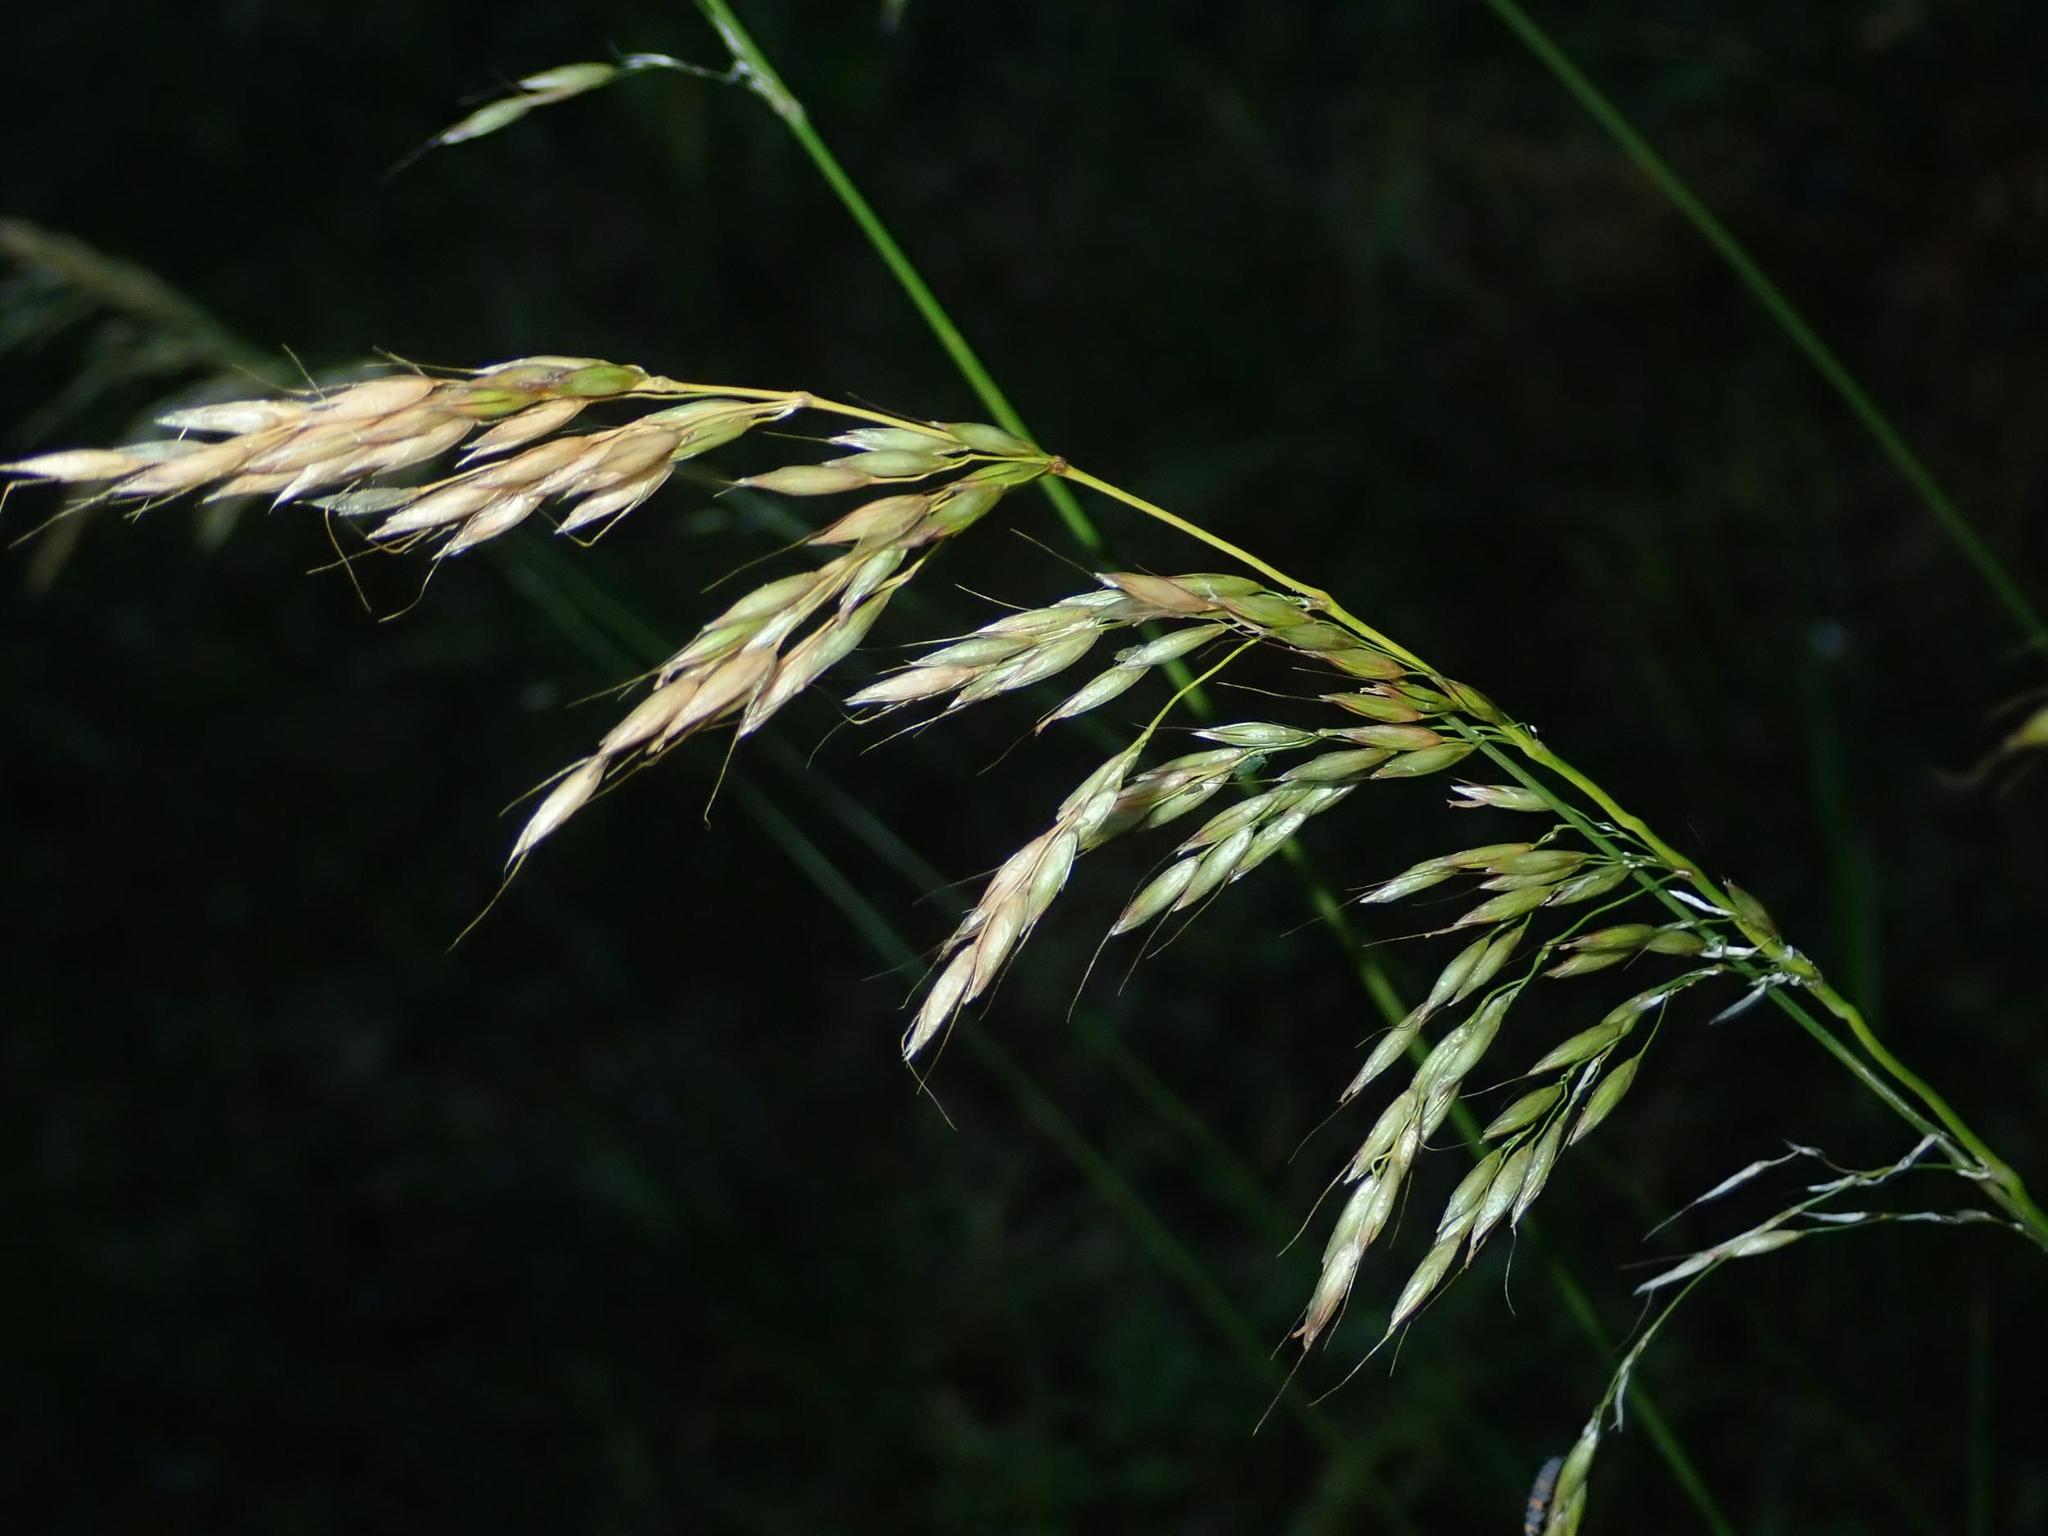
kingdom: Plantae
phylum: Tracheophyta
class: Liliopsida
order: Poales
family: Poaceae
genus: Arrhenatherum
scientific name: Arrhenatherum elatius
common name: Tall oatgrass
